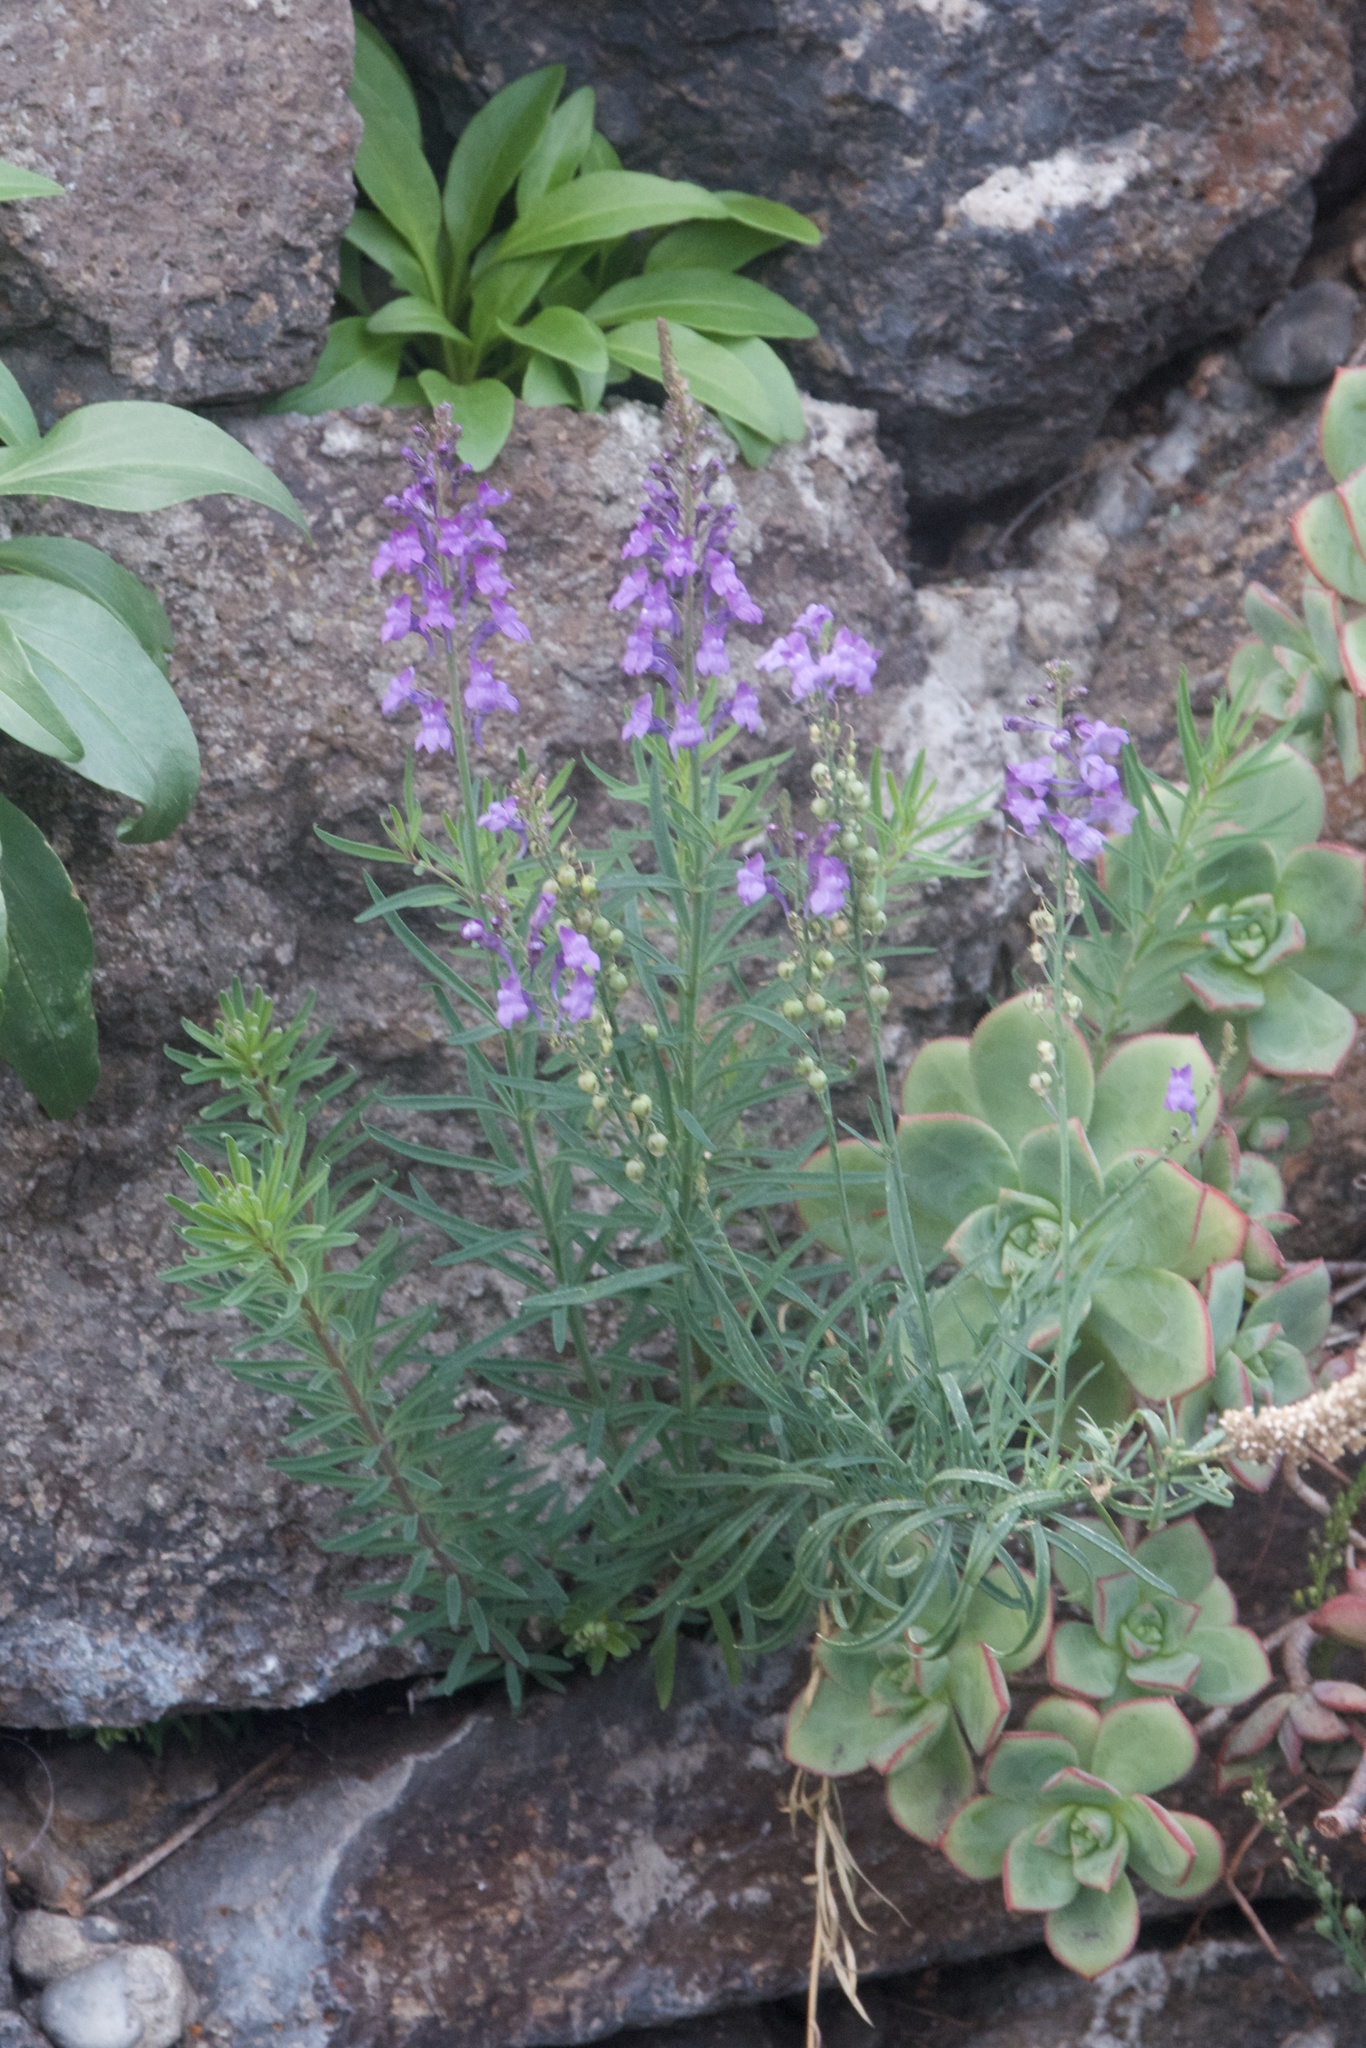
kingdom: Plantae
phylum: Tracheophyta
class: Magnoliopsida
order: Lamiales
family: Plantaginaceae
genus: Linaria
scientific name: Linaria purpurea
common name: Purple toadflax
